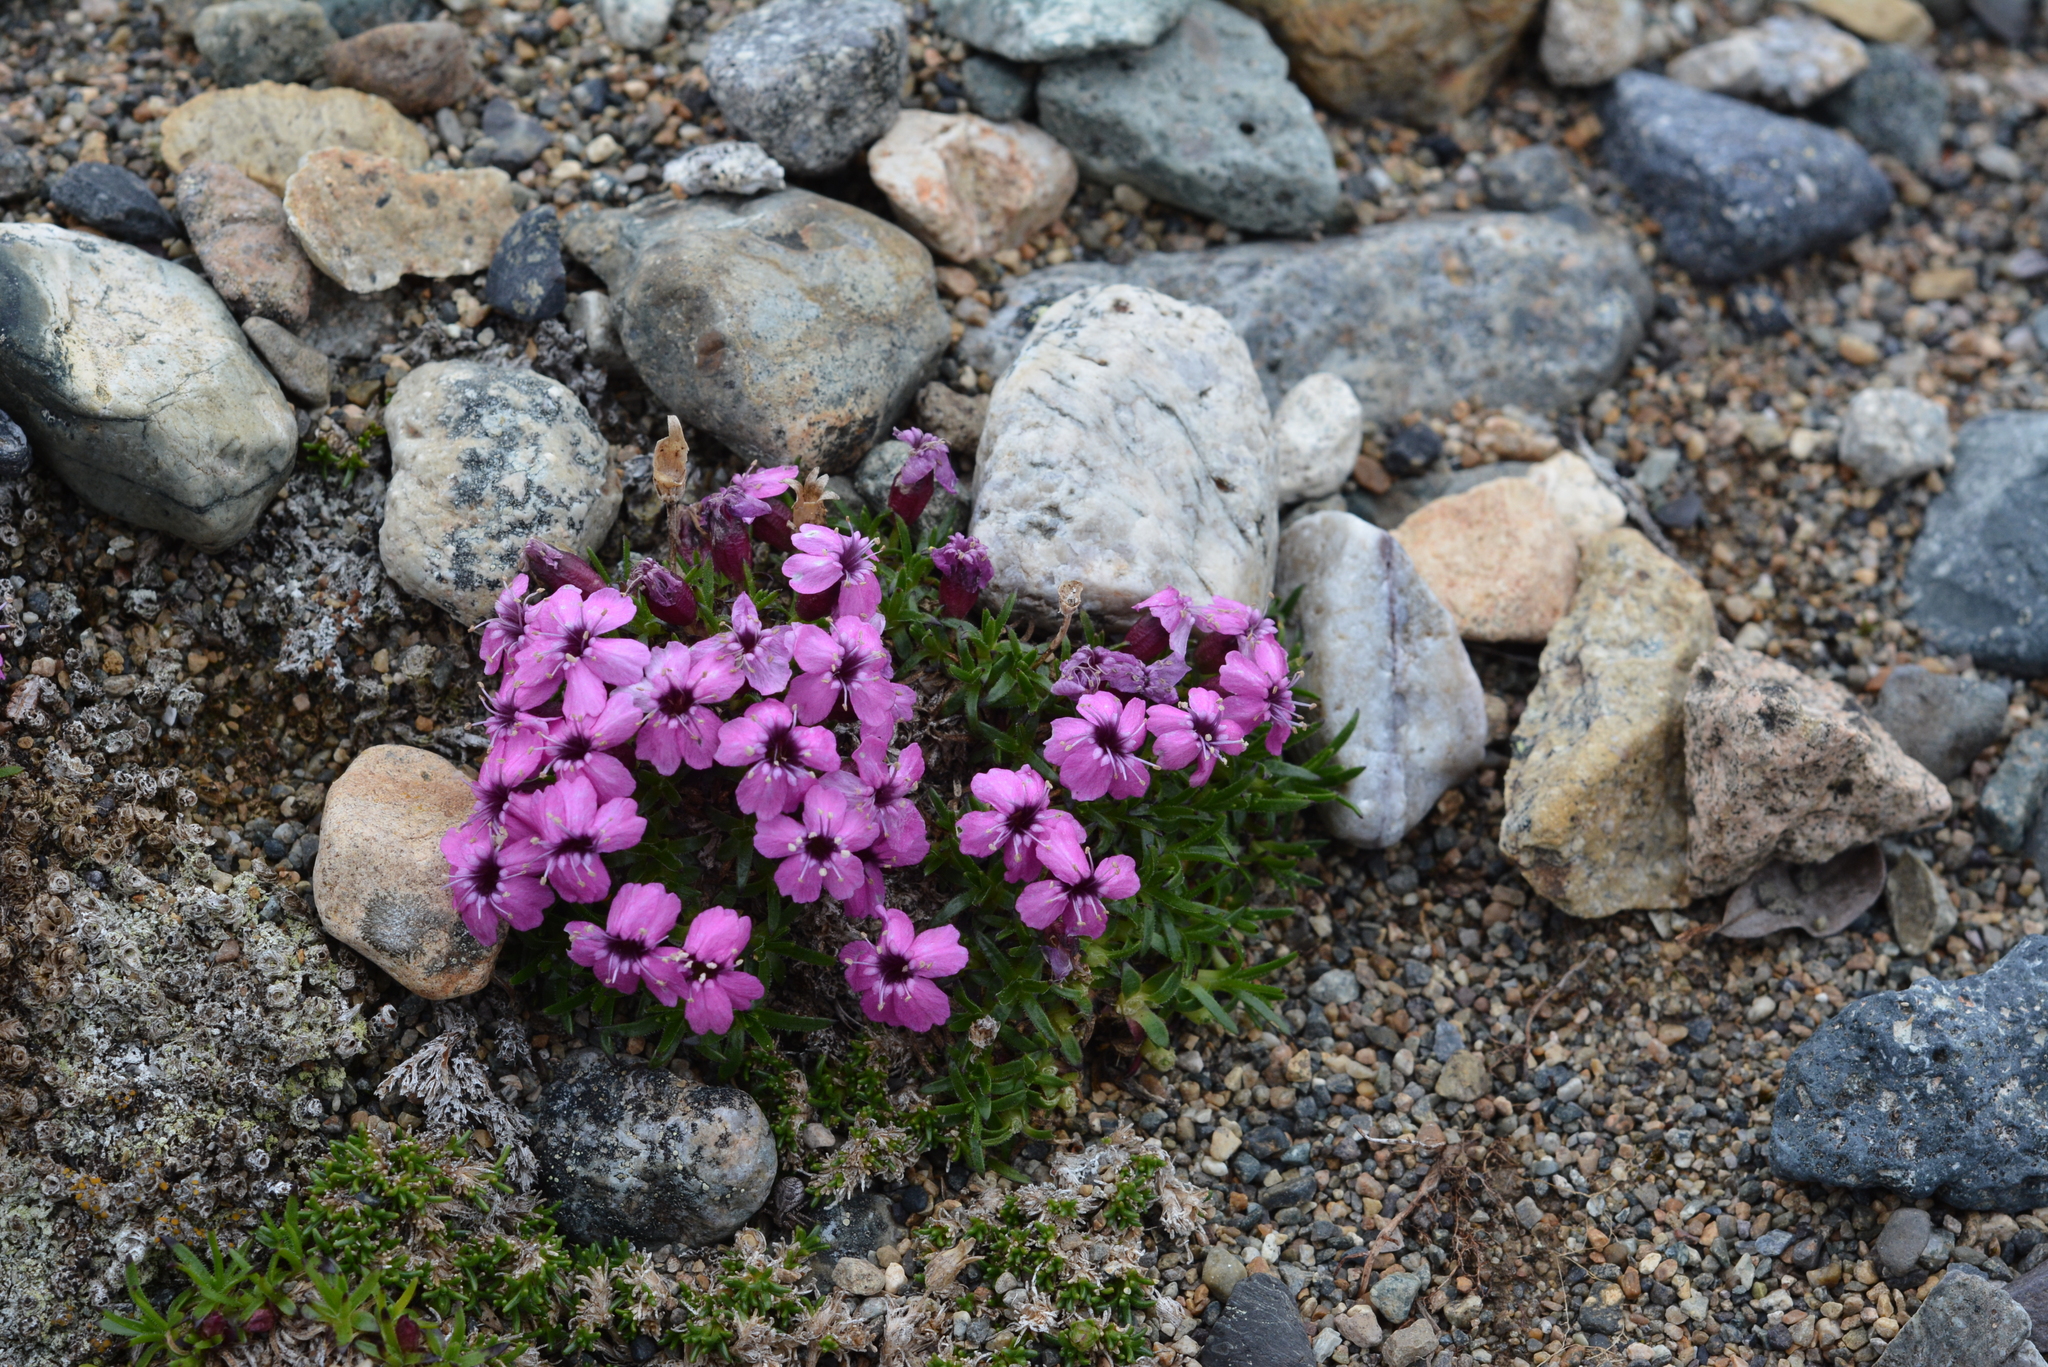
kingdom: Plantae
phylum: Tracheophyta
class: Magnoliopsida
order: Caryophyllales
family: Caryophyllaceae
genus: Silene
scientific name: Silene acaulis
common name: Moss campion
